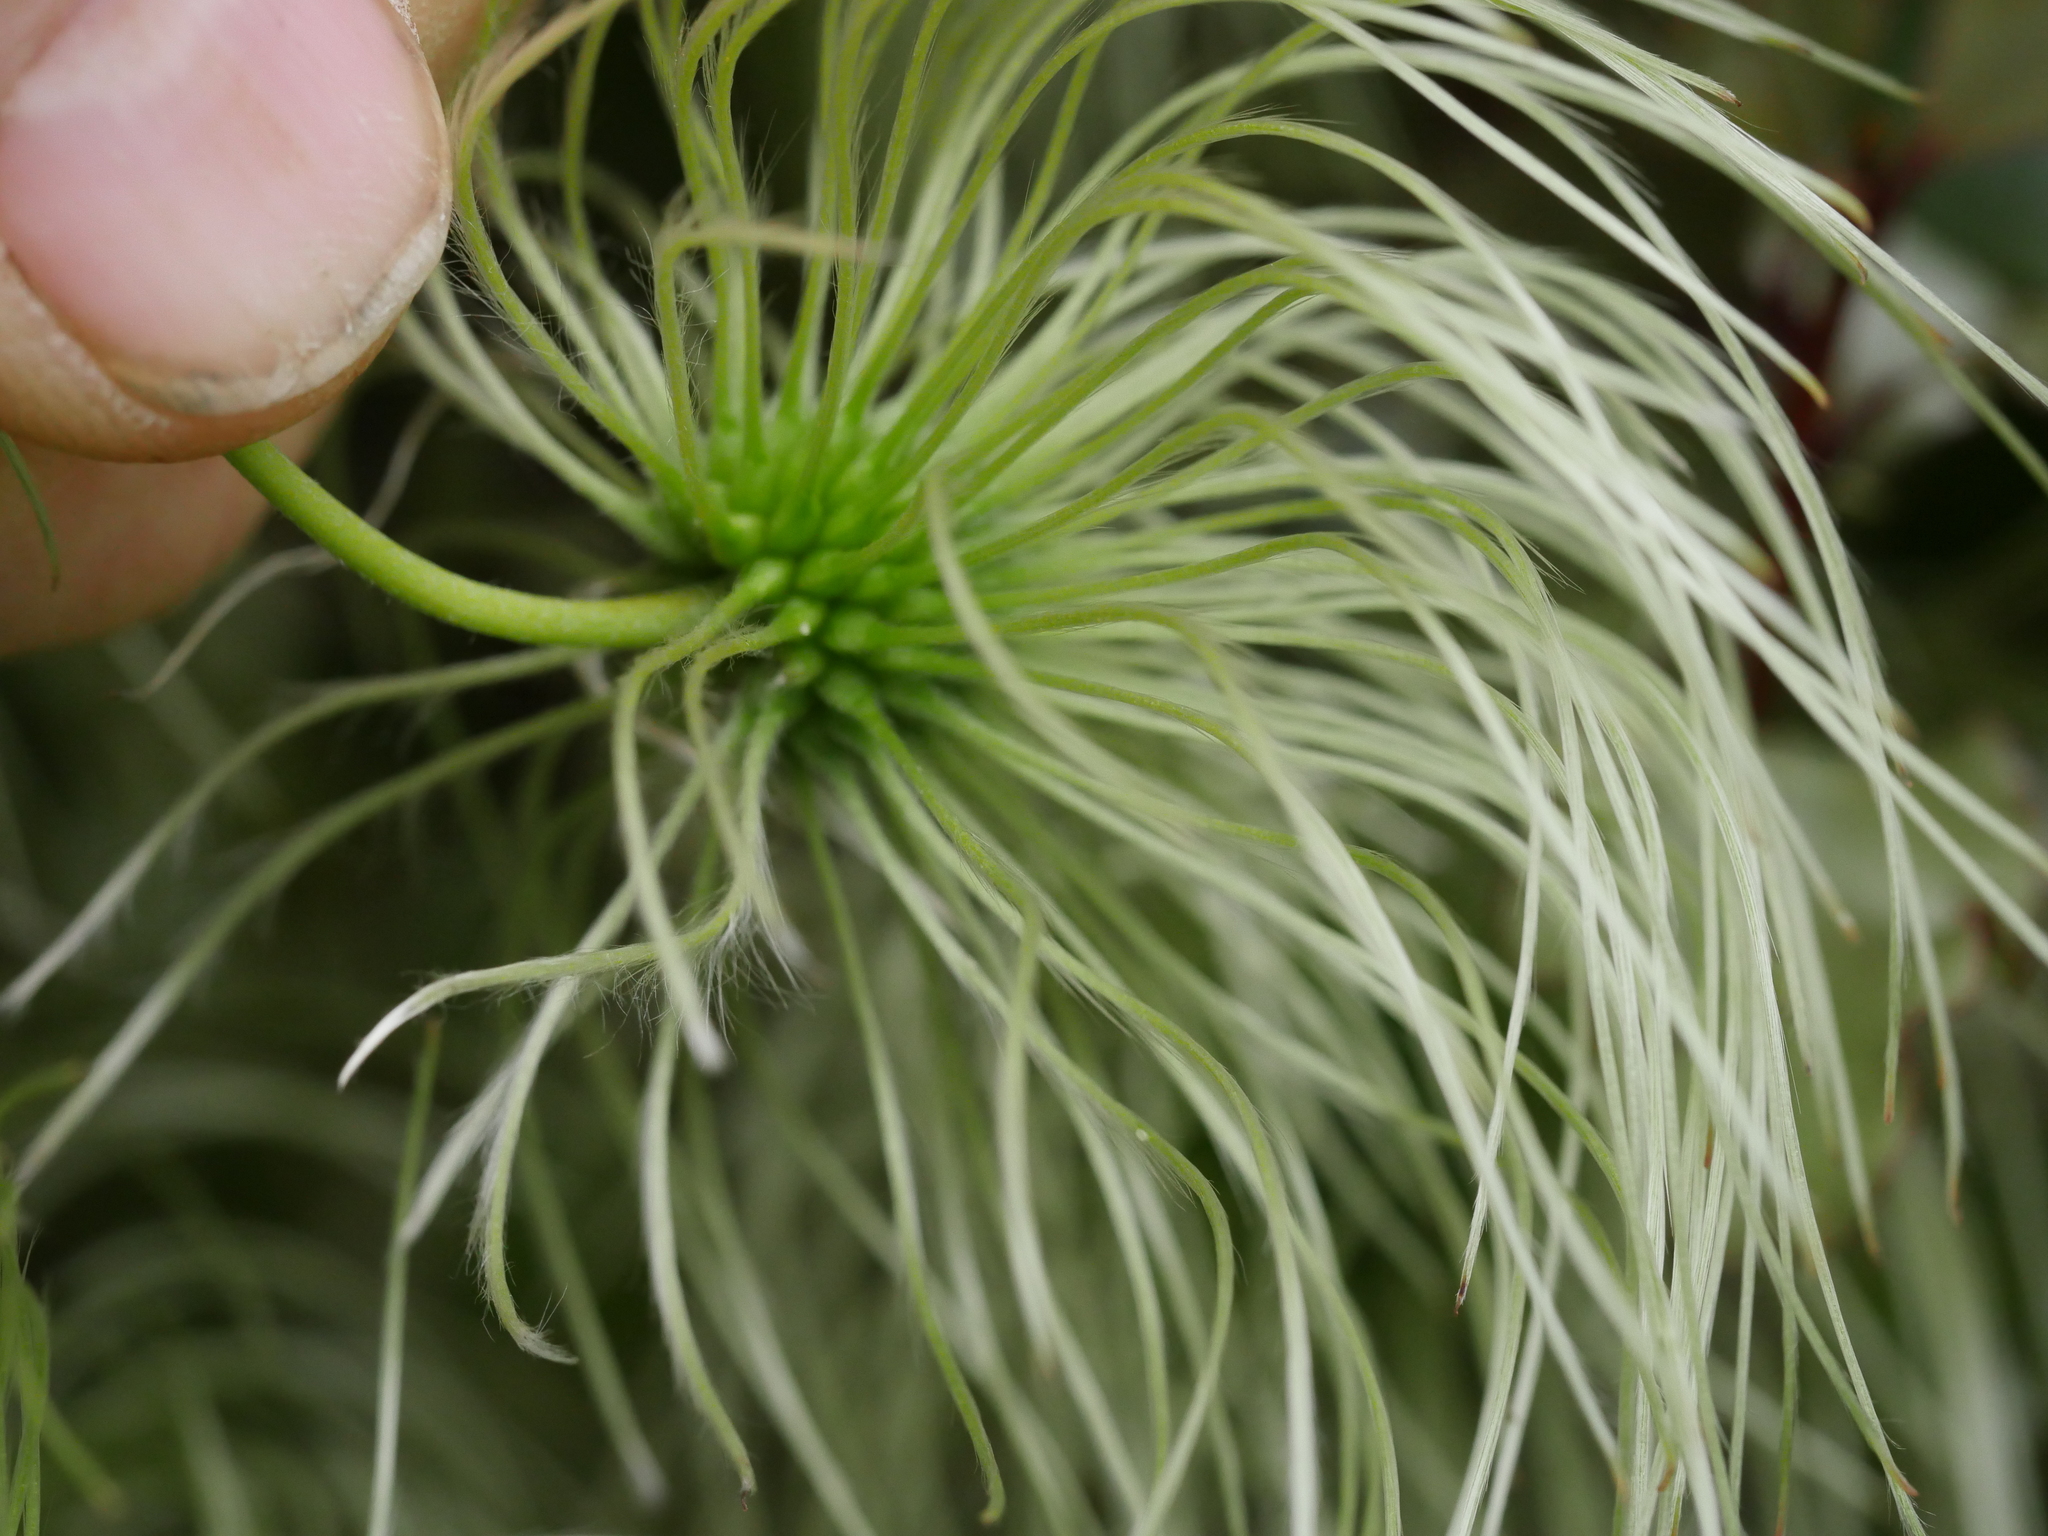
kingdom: Plantae
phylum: Tracheophyta
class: Magnoliopsida
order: Ranunculales
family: Ranunculaceae
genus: Clematis
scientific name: Clematis paniculata
